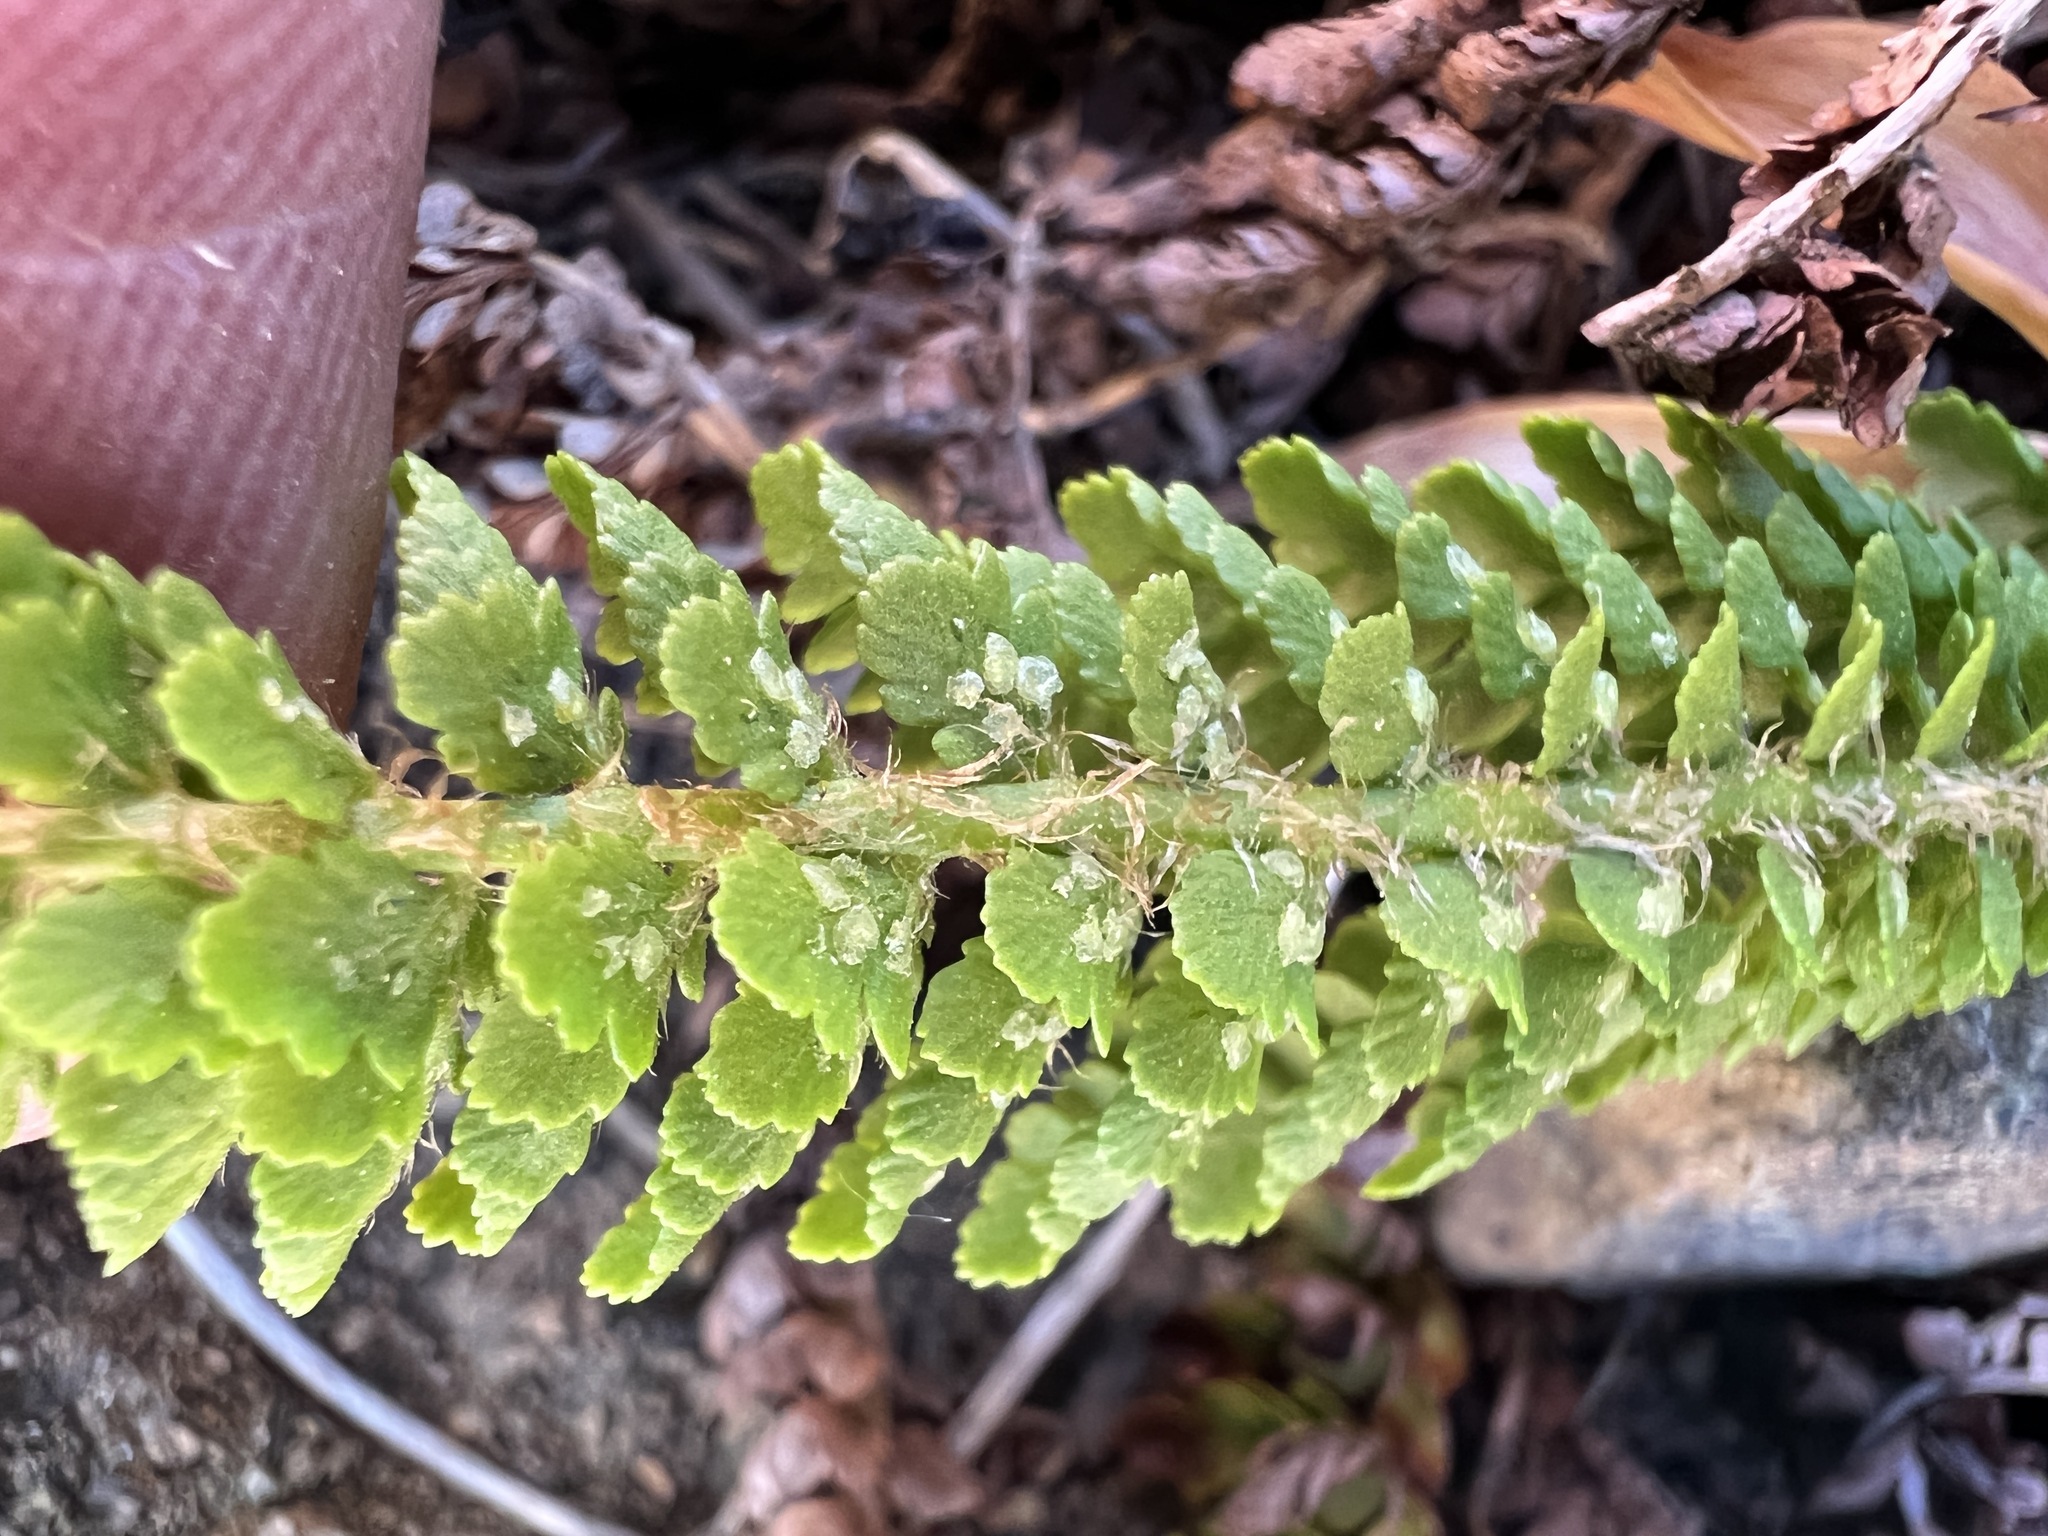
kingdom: Plantae
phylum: Tracheophyta
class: Polypodiopsida
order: Polypodiales
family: Dryopteridaceae
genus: Polystichum
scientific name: Polystichum lemmonii
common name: Lemmon's holly fern
